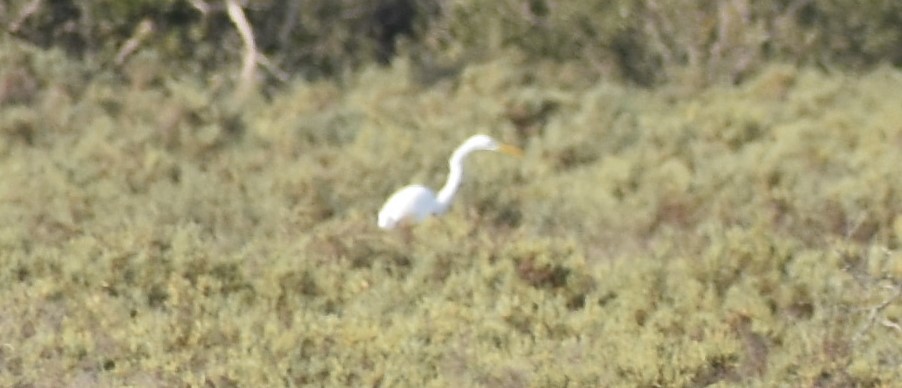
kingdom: Animalia
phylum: Chordata
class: Aves
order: Pelecaniformes
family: Ardeidae
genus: Ardea
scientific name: Ardea alba
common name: Great egret
